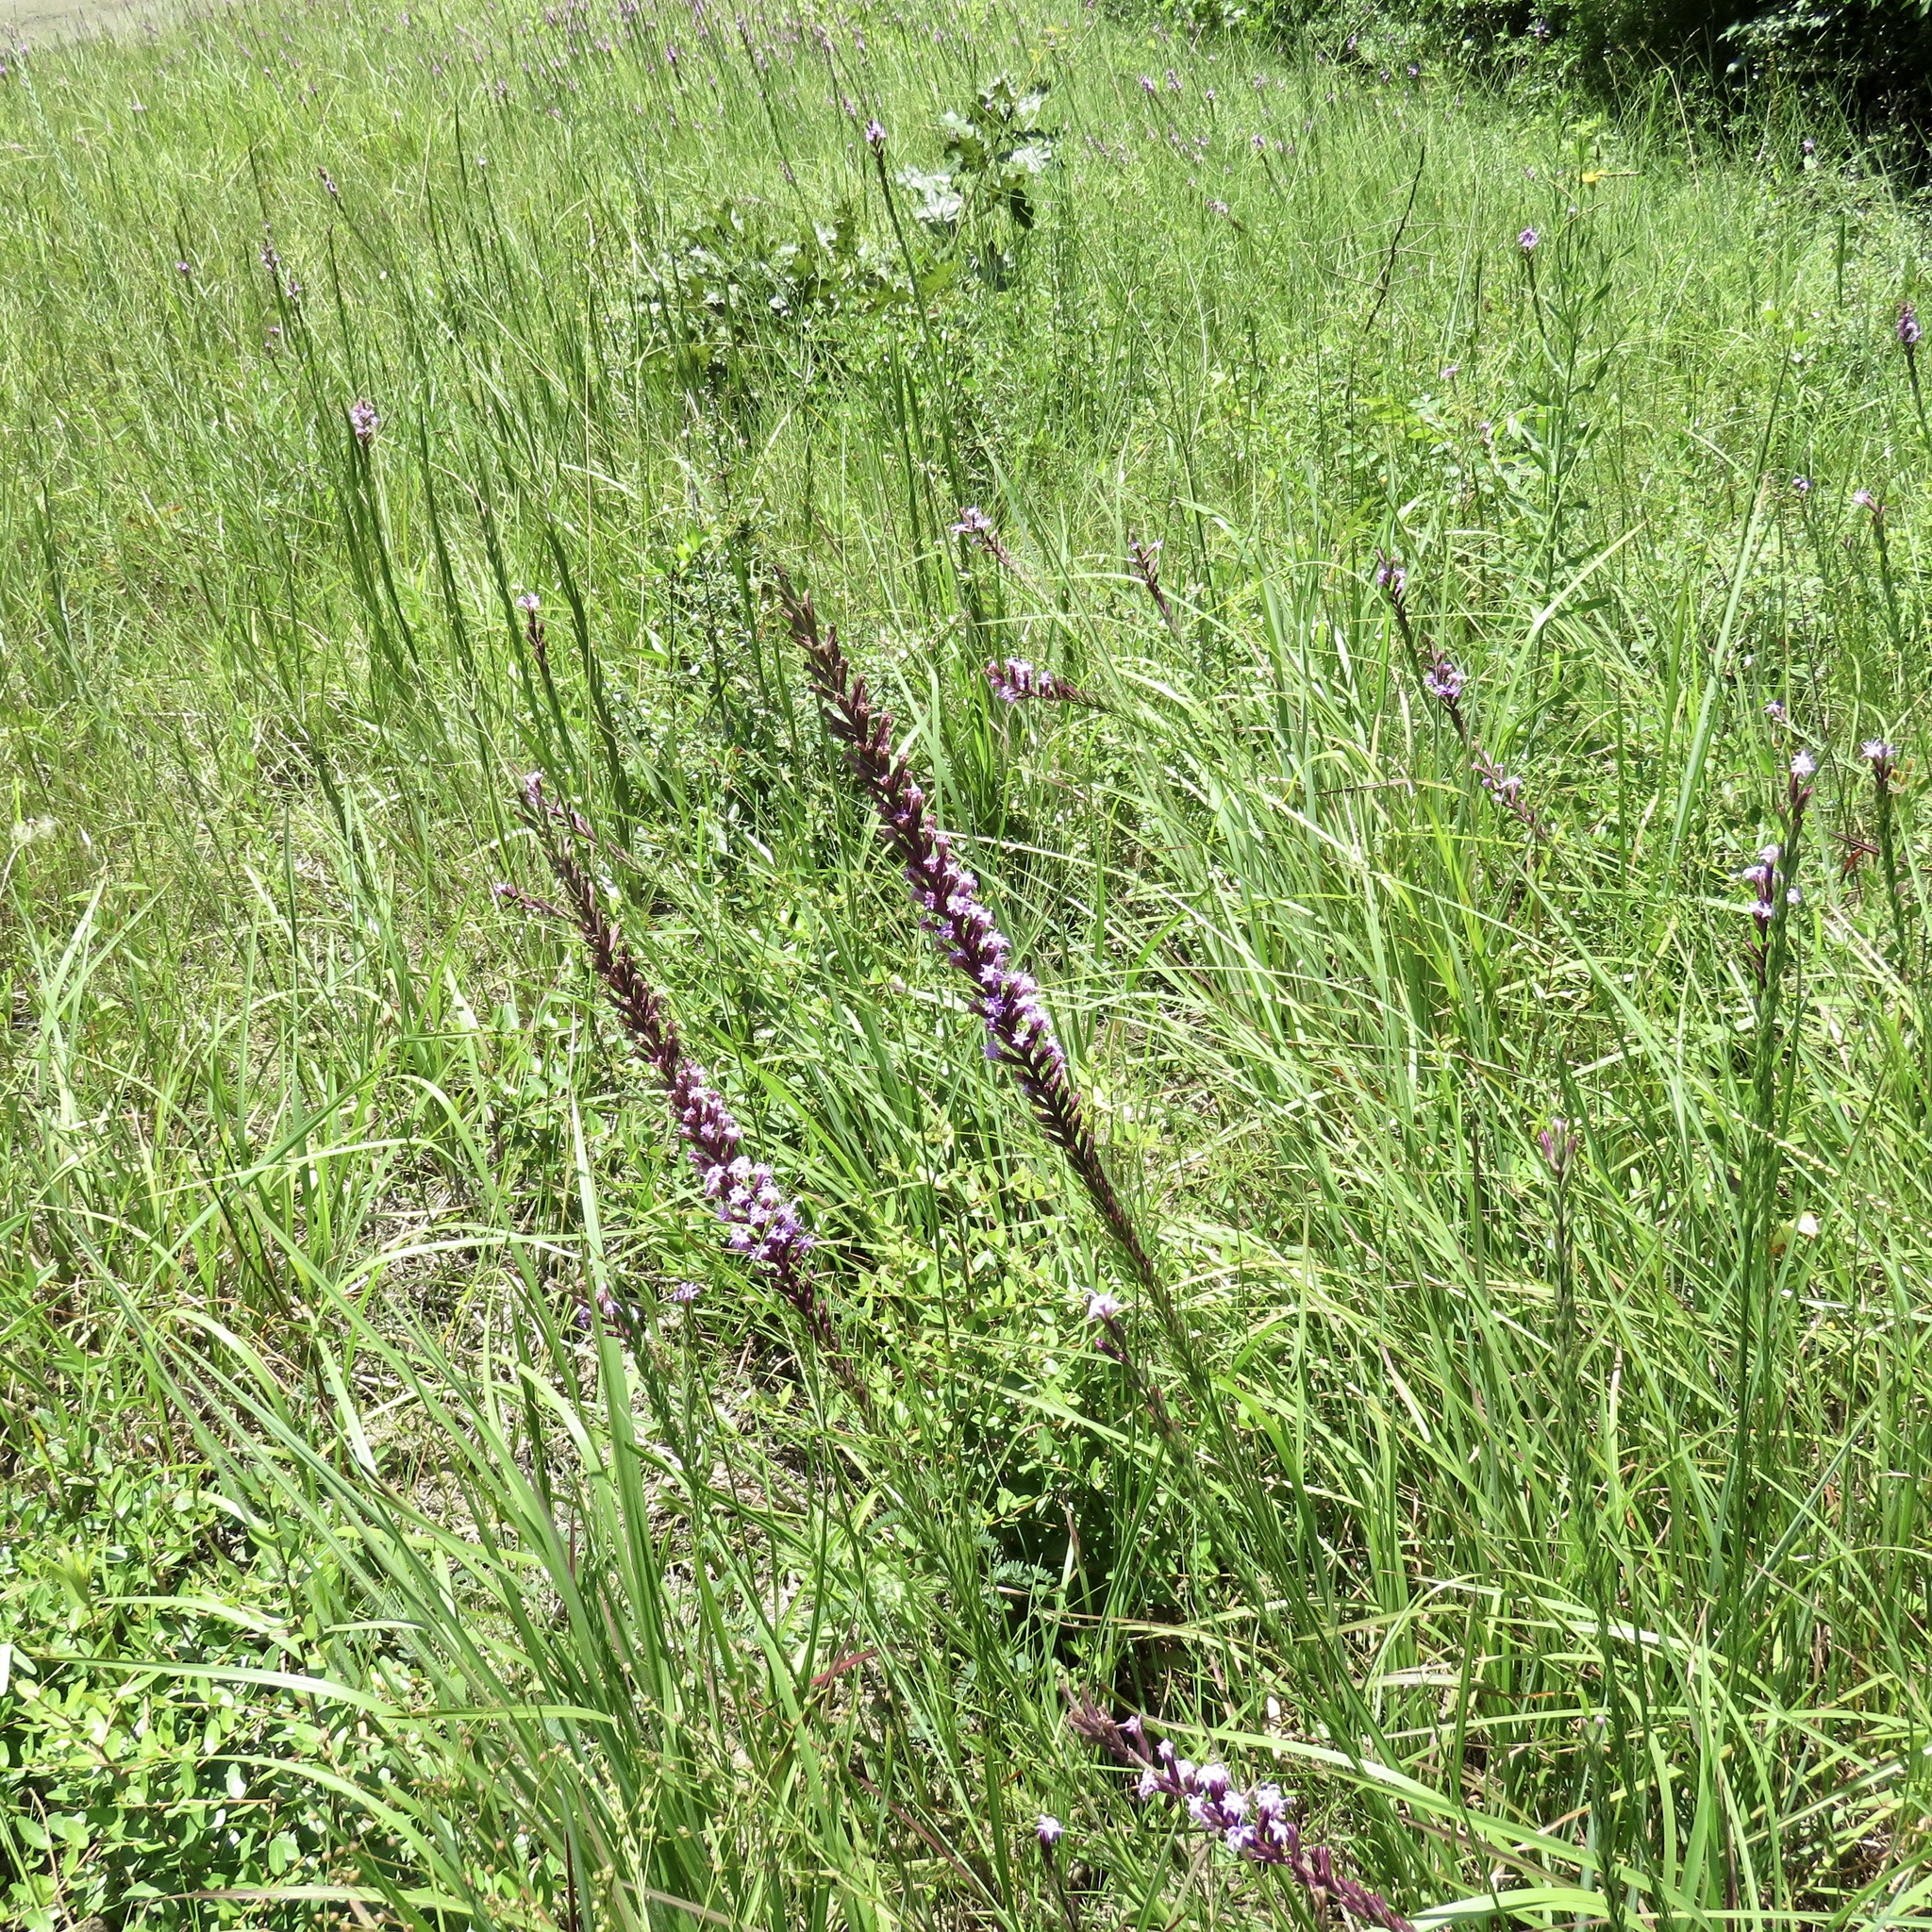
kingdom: Plantae
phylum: Tracheophyta
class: Magnoliopsida
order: Asterales
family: Asteraceae
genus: Liatris
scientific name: Liatris acidota
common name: Gulf coast gayfeather
